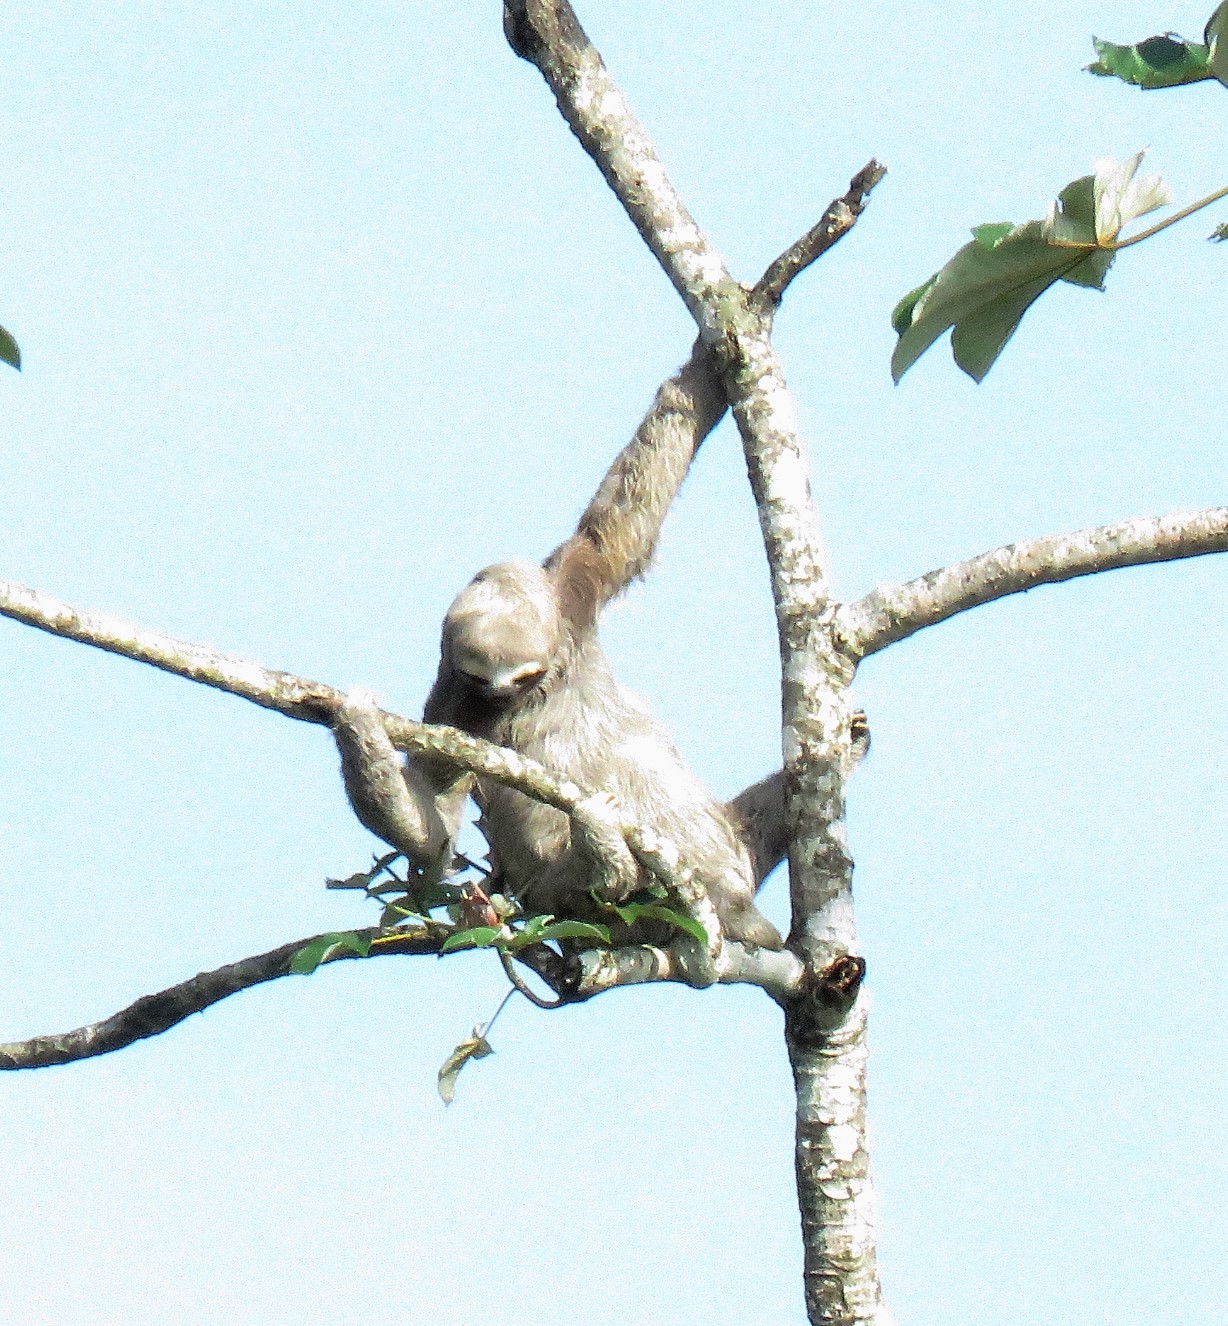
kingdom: Animalia
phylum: Chordata
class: Mammalia
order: Pilosa
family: Bradypodidae
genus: Bradypus
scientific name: Bradypus variegatus
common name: Brown-throated three-toed sloth
